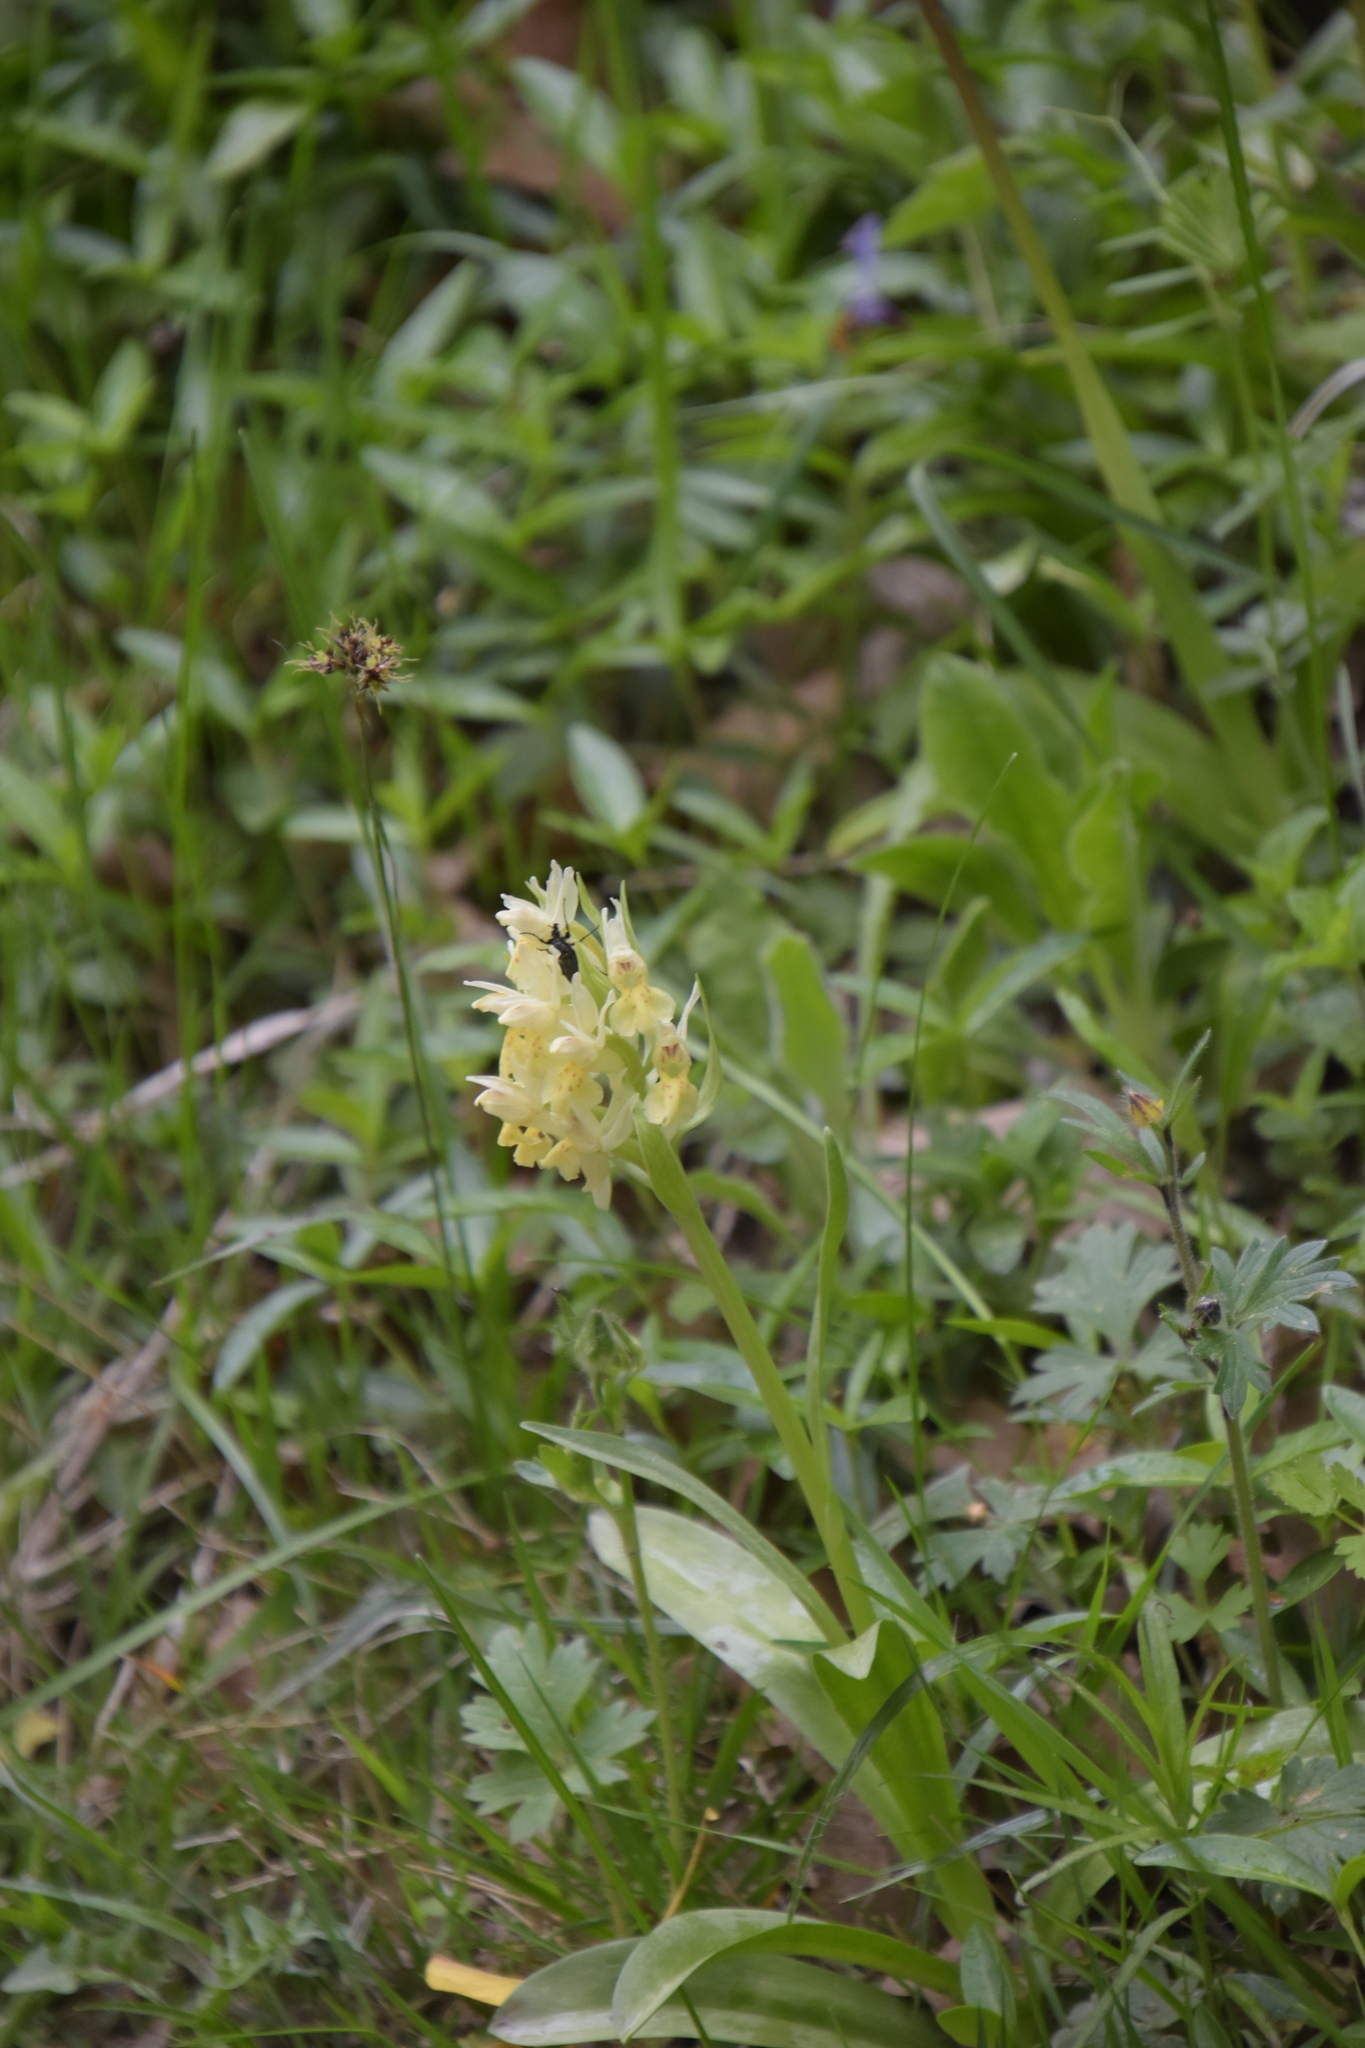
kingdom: Plantae
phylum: Tracheophyta
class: Liliopsida
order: Asparagales
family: Orchidaceae
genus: Dactylorhiza
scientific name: Dactylorhiza sambucina
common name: Elder-flowered orchid
